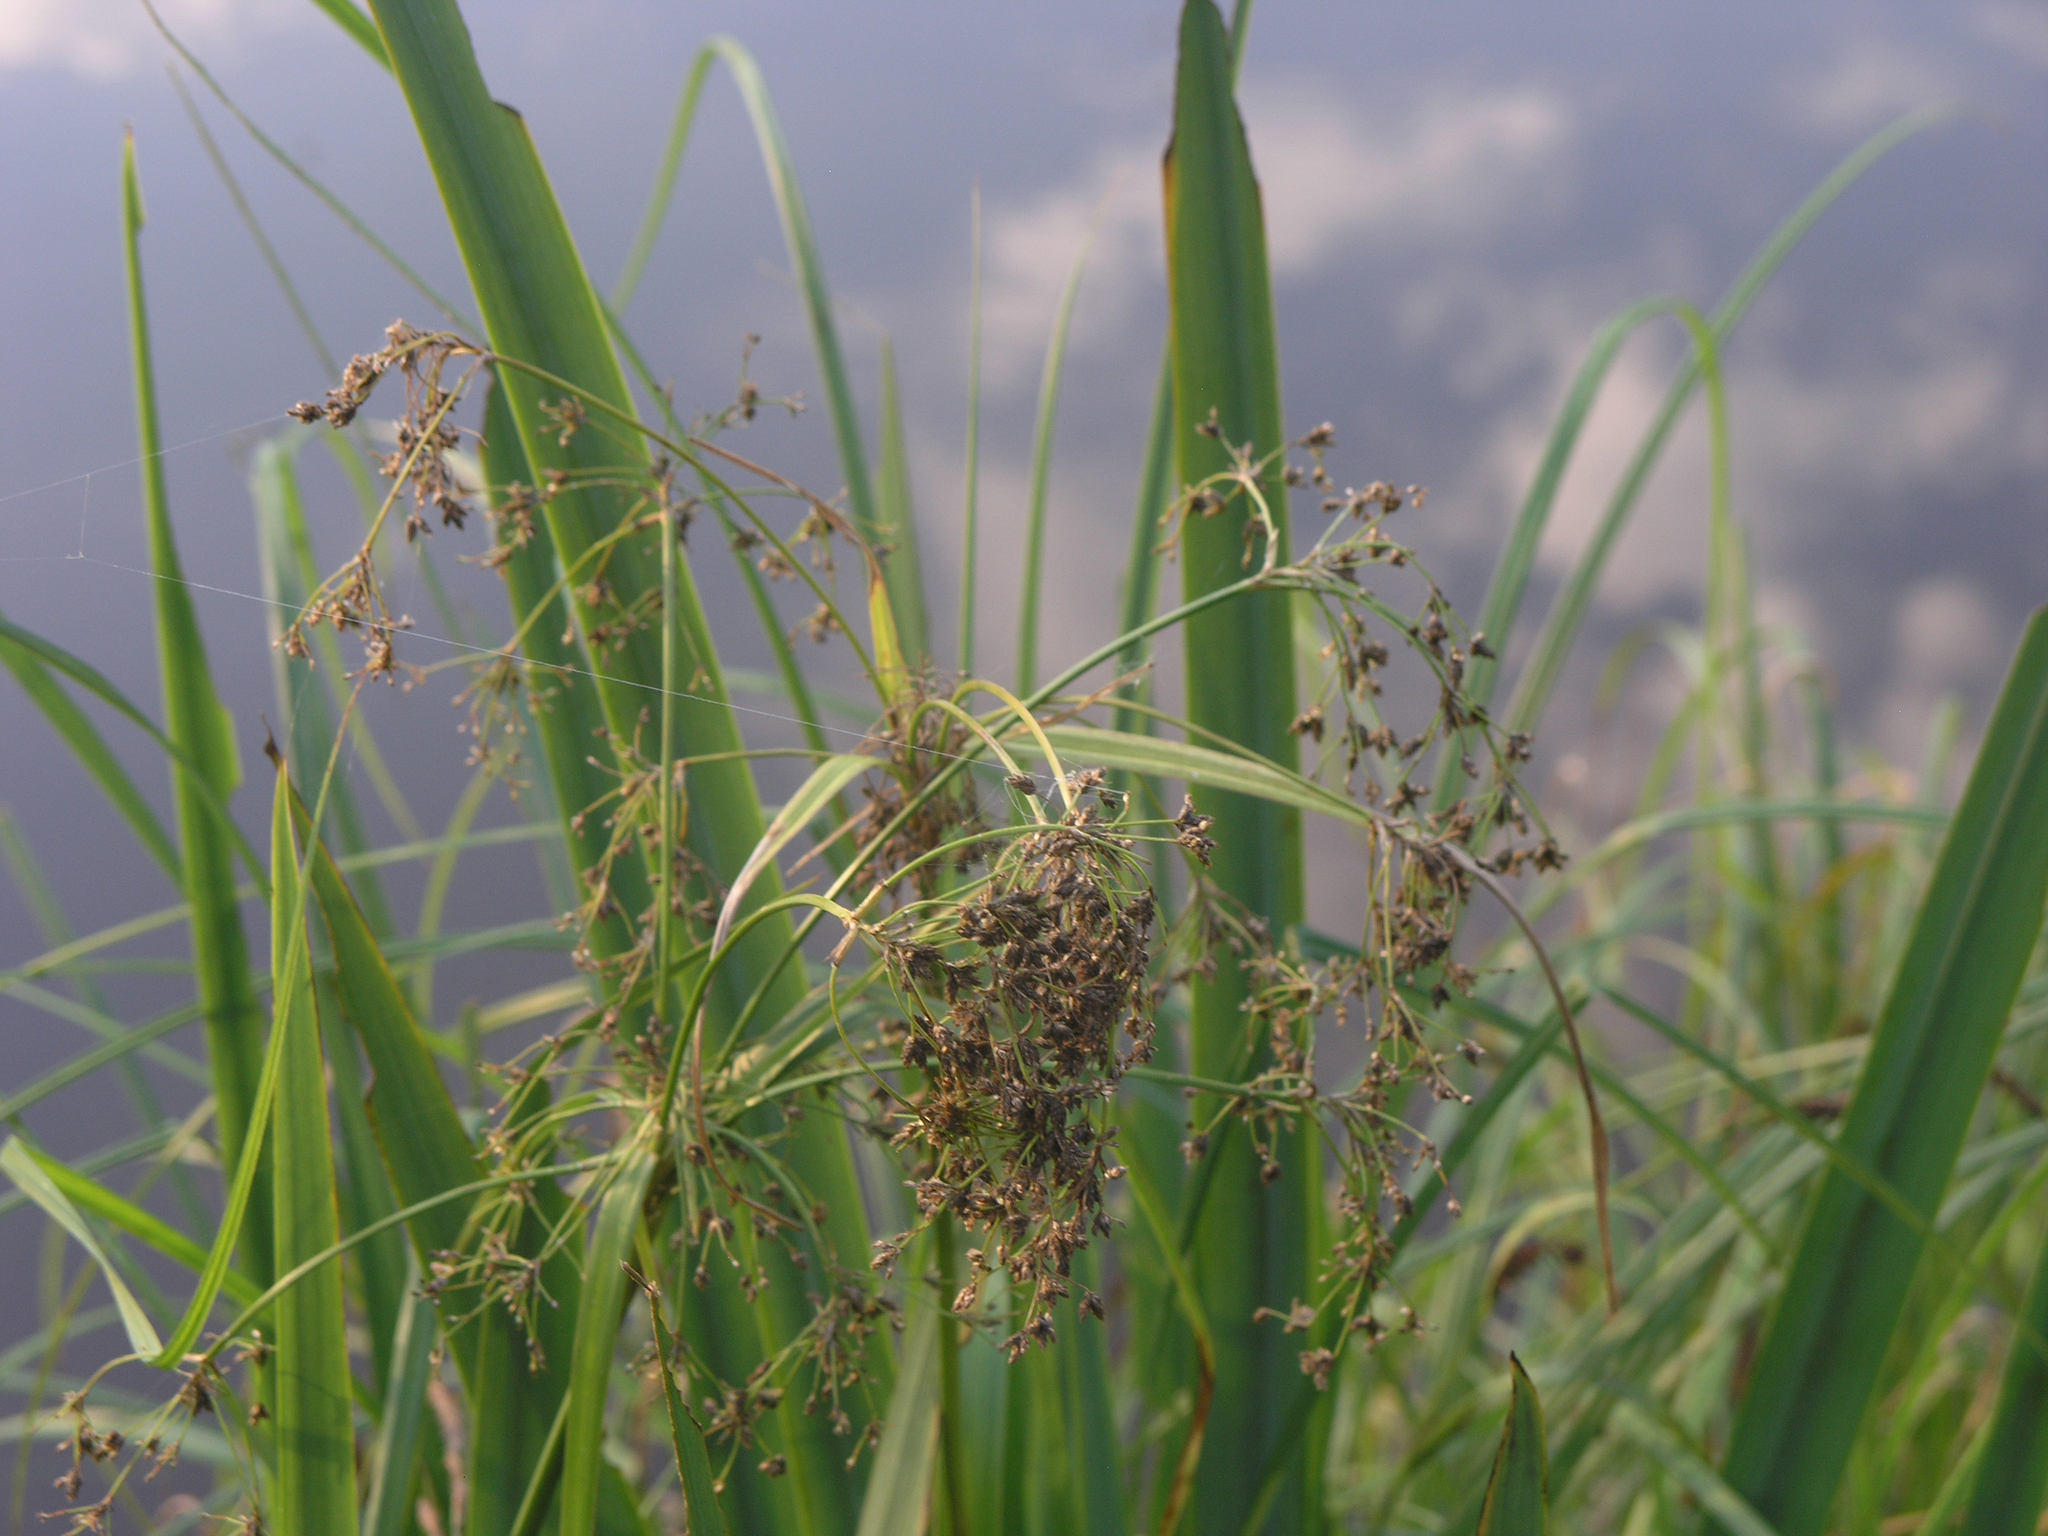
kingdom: Plantae
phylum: Tracheophyta
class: Liliopsida
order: Poales
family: Cyperaceae
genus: Scirpus
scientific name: Scirpus sylvaticus
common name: Wood club-rush
